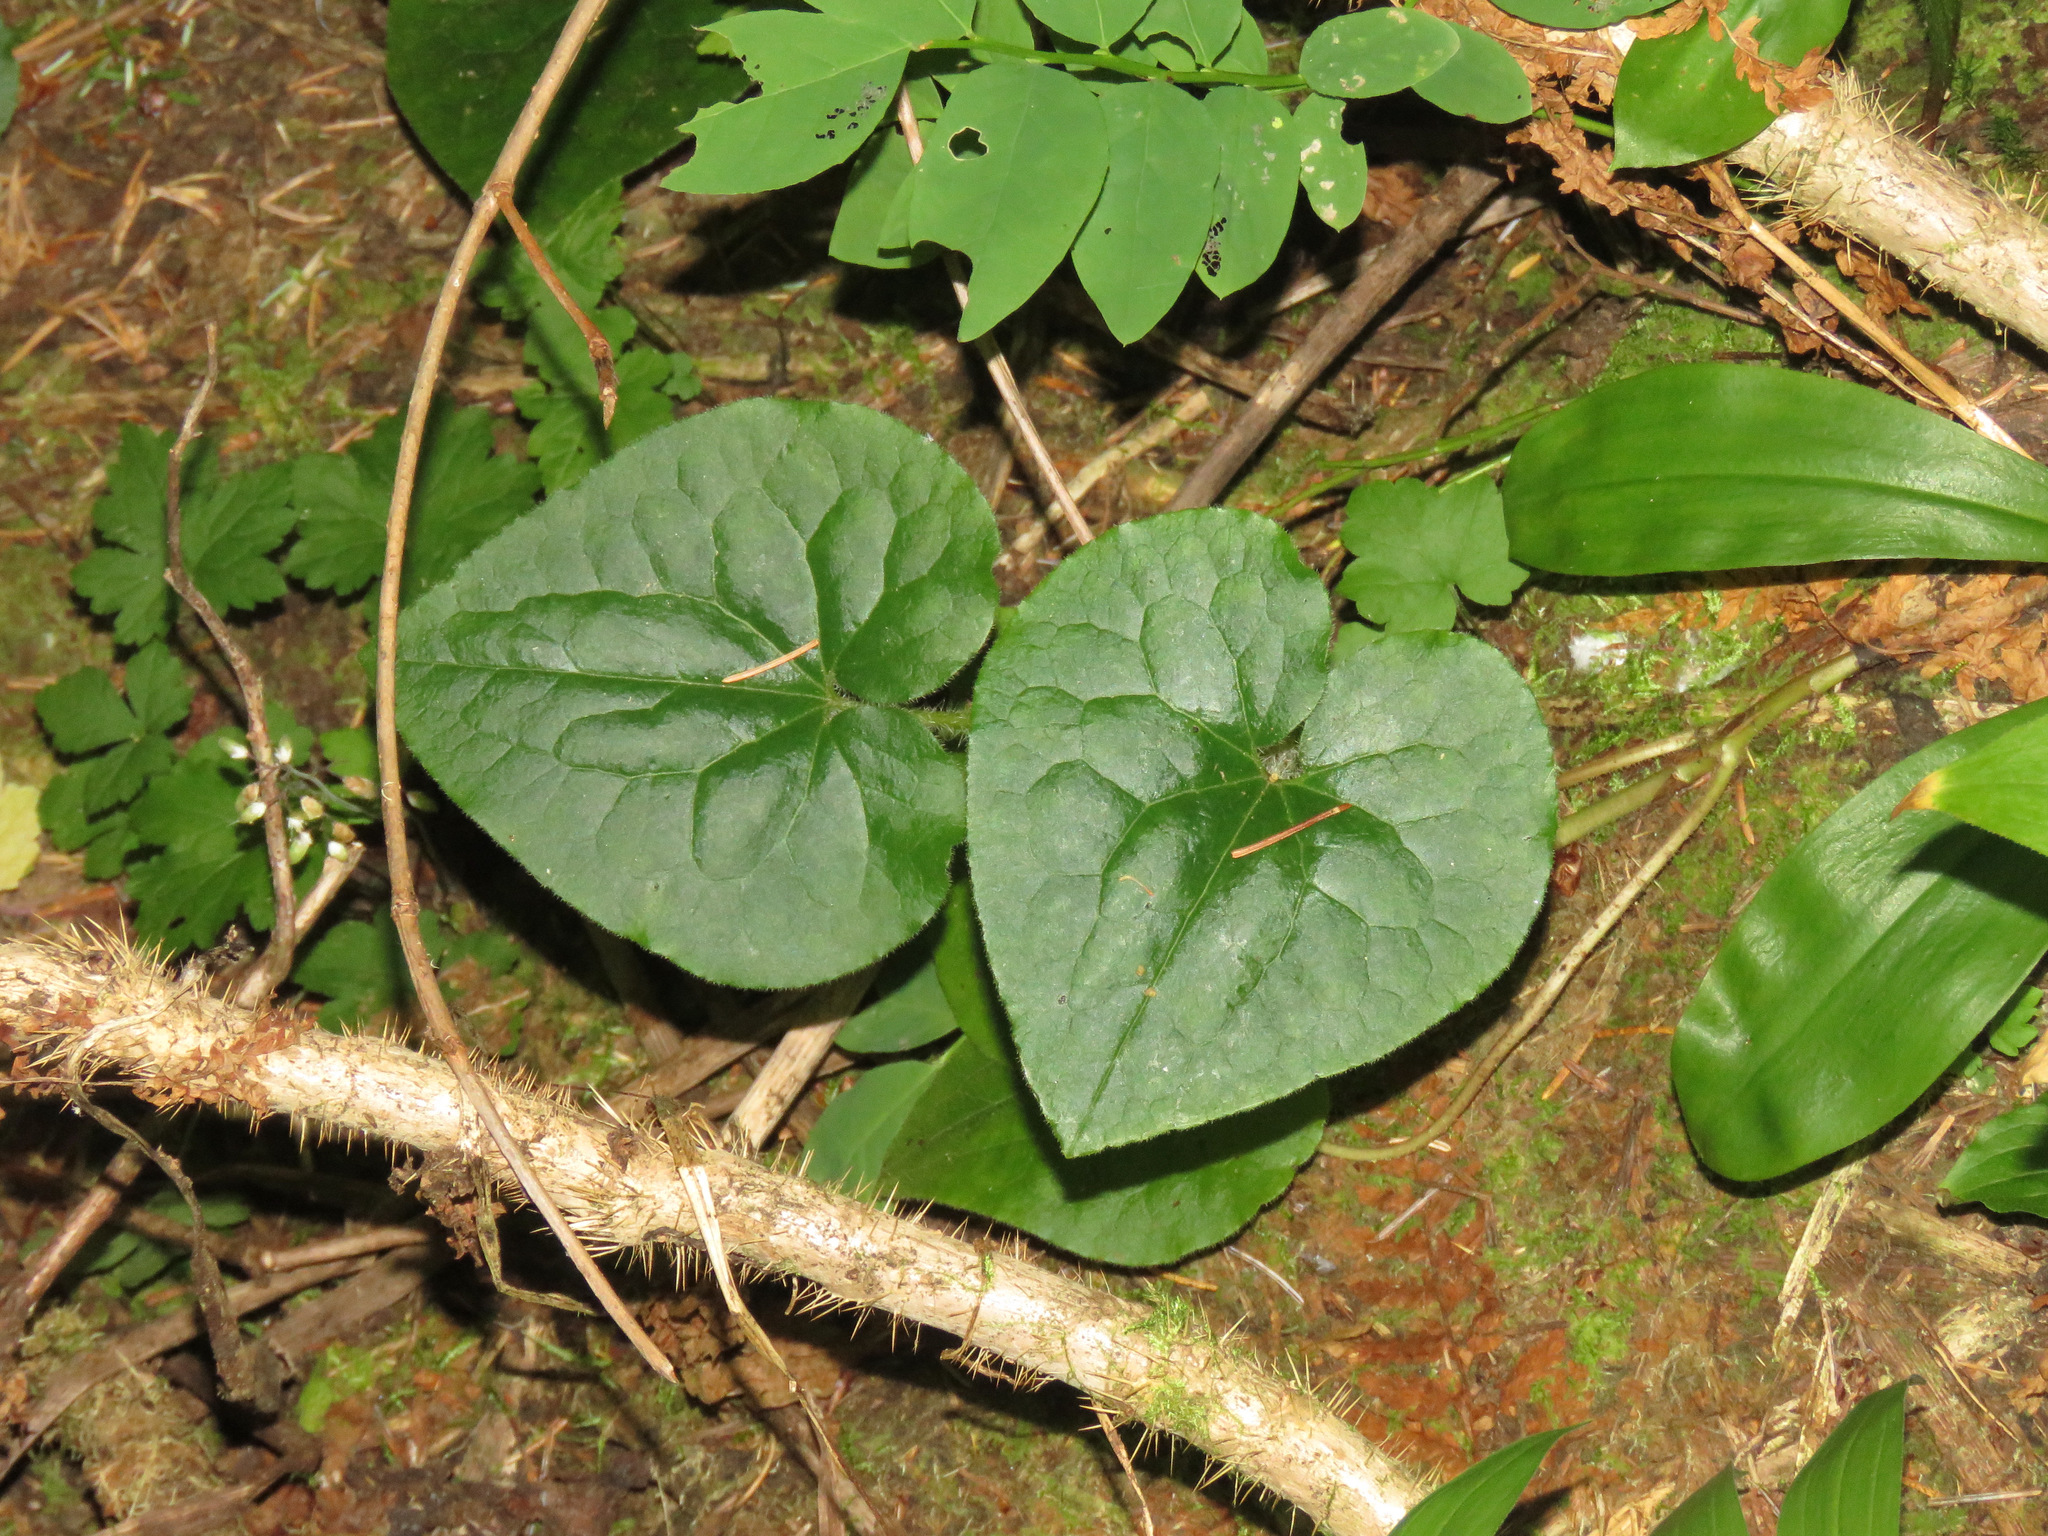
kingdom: Plantae
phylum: Tracheophyta
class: Magnoliopsida
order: Piperales
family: Aristolochiaceae
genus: Asarum
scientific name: Asarum caudatum
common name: Wild ginger
